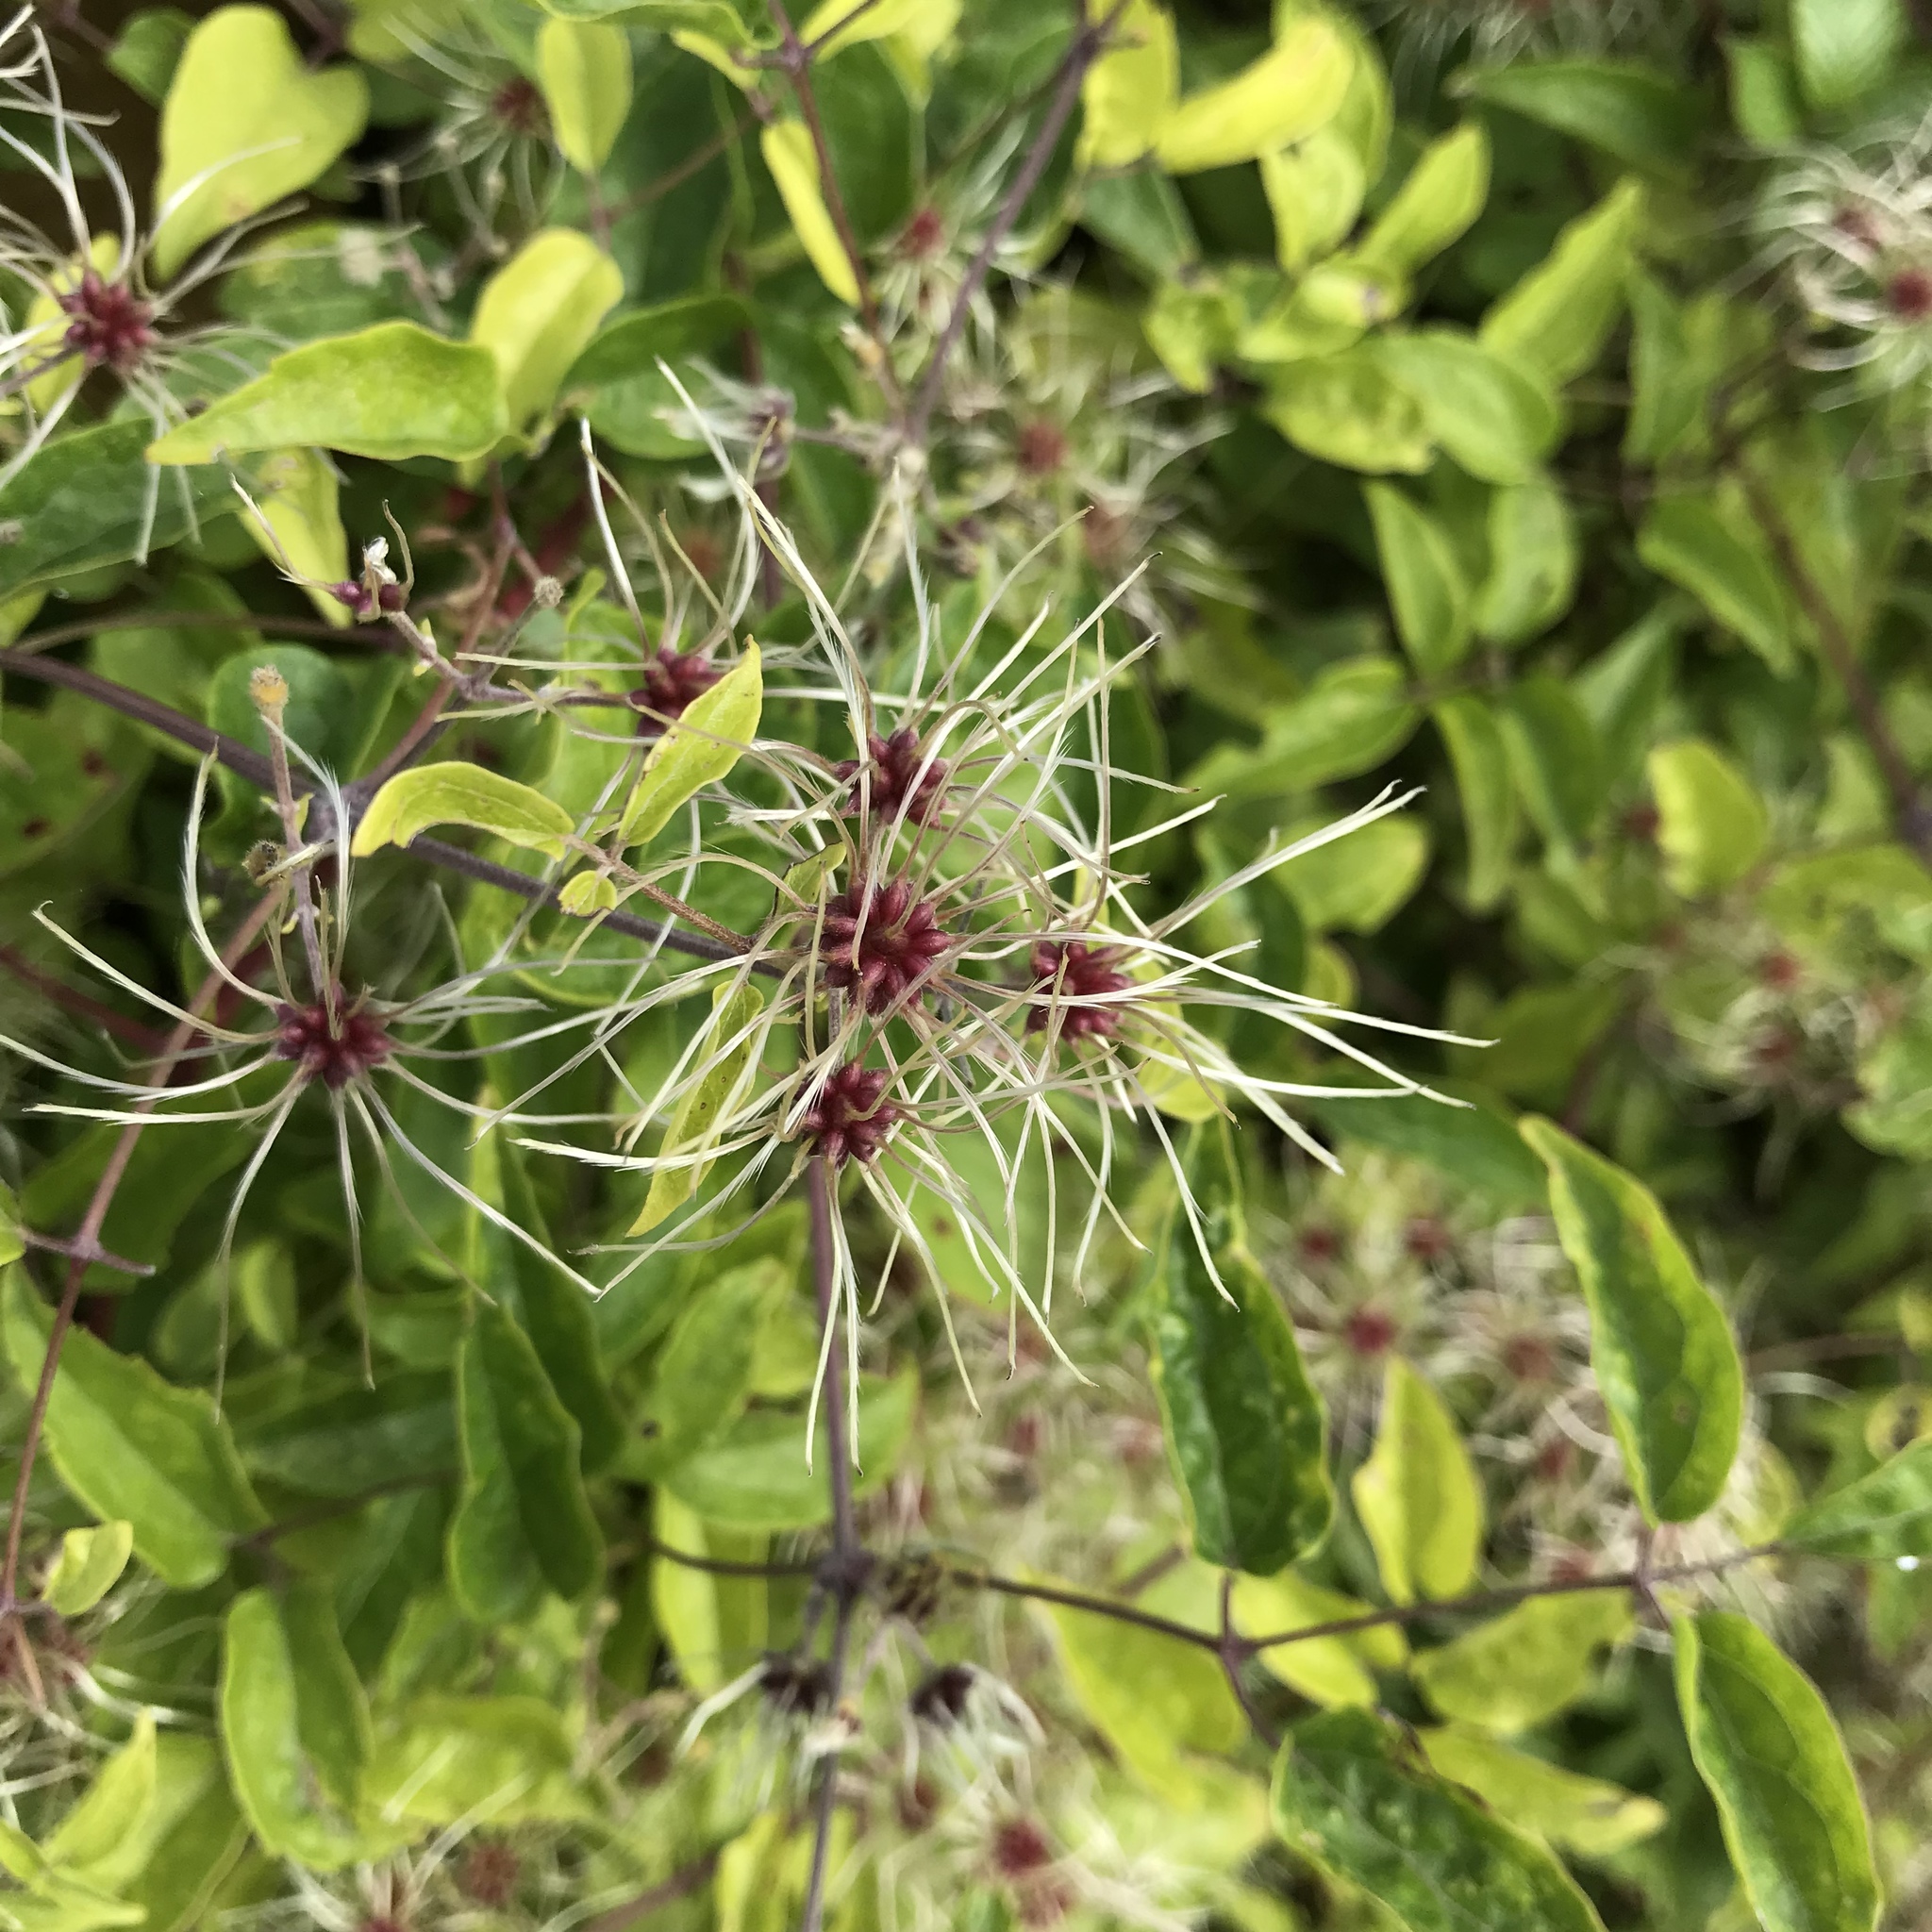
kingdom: Plantae
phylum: Tracheophyta
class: Magnoliopsida
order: Ranunculales
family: Ranunculaceae
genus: Clematis
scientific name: Clematis vitalba
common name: Evergreen clematis
